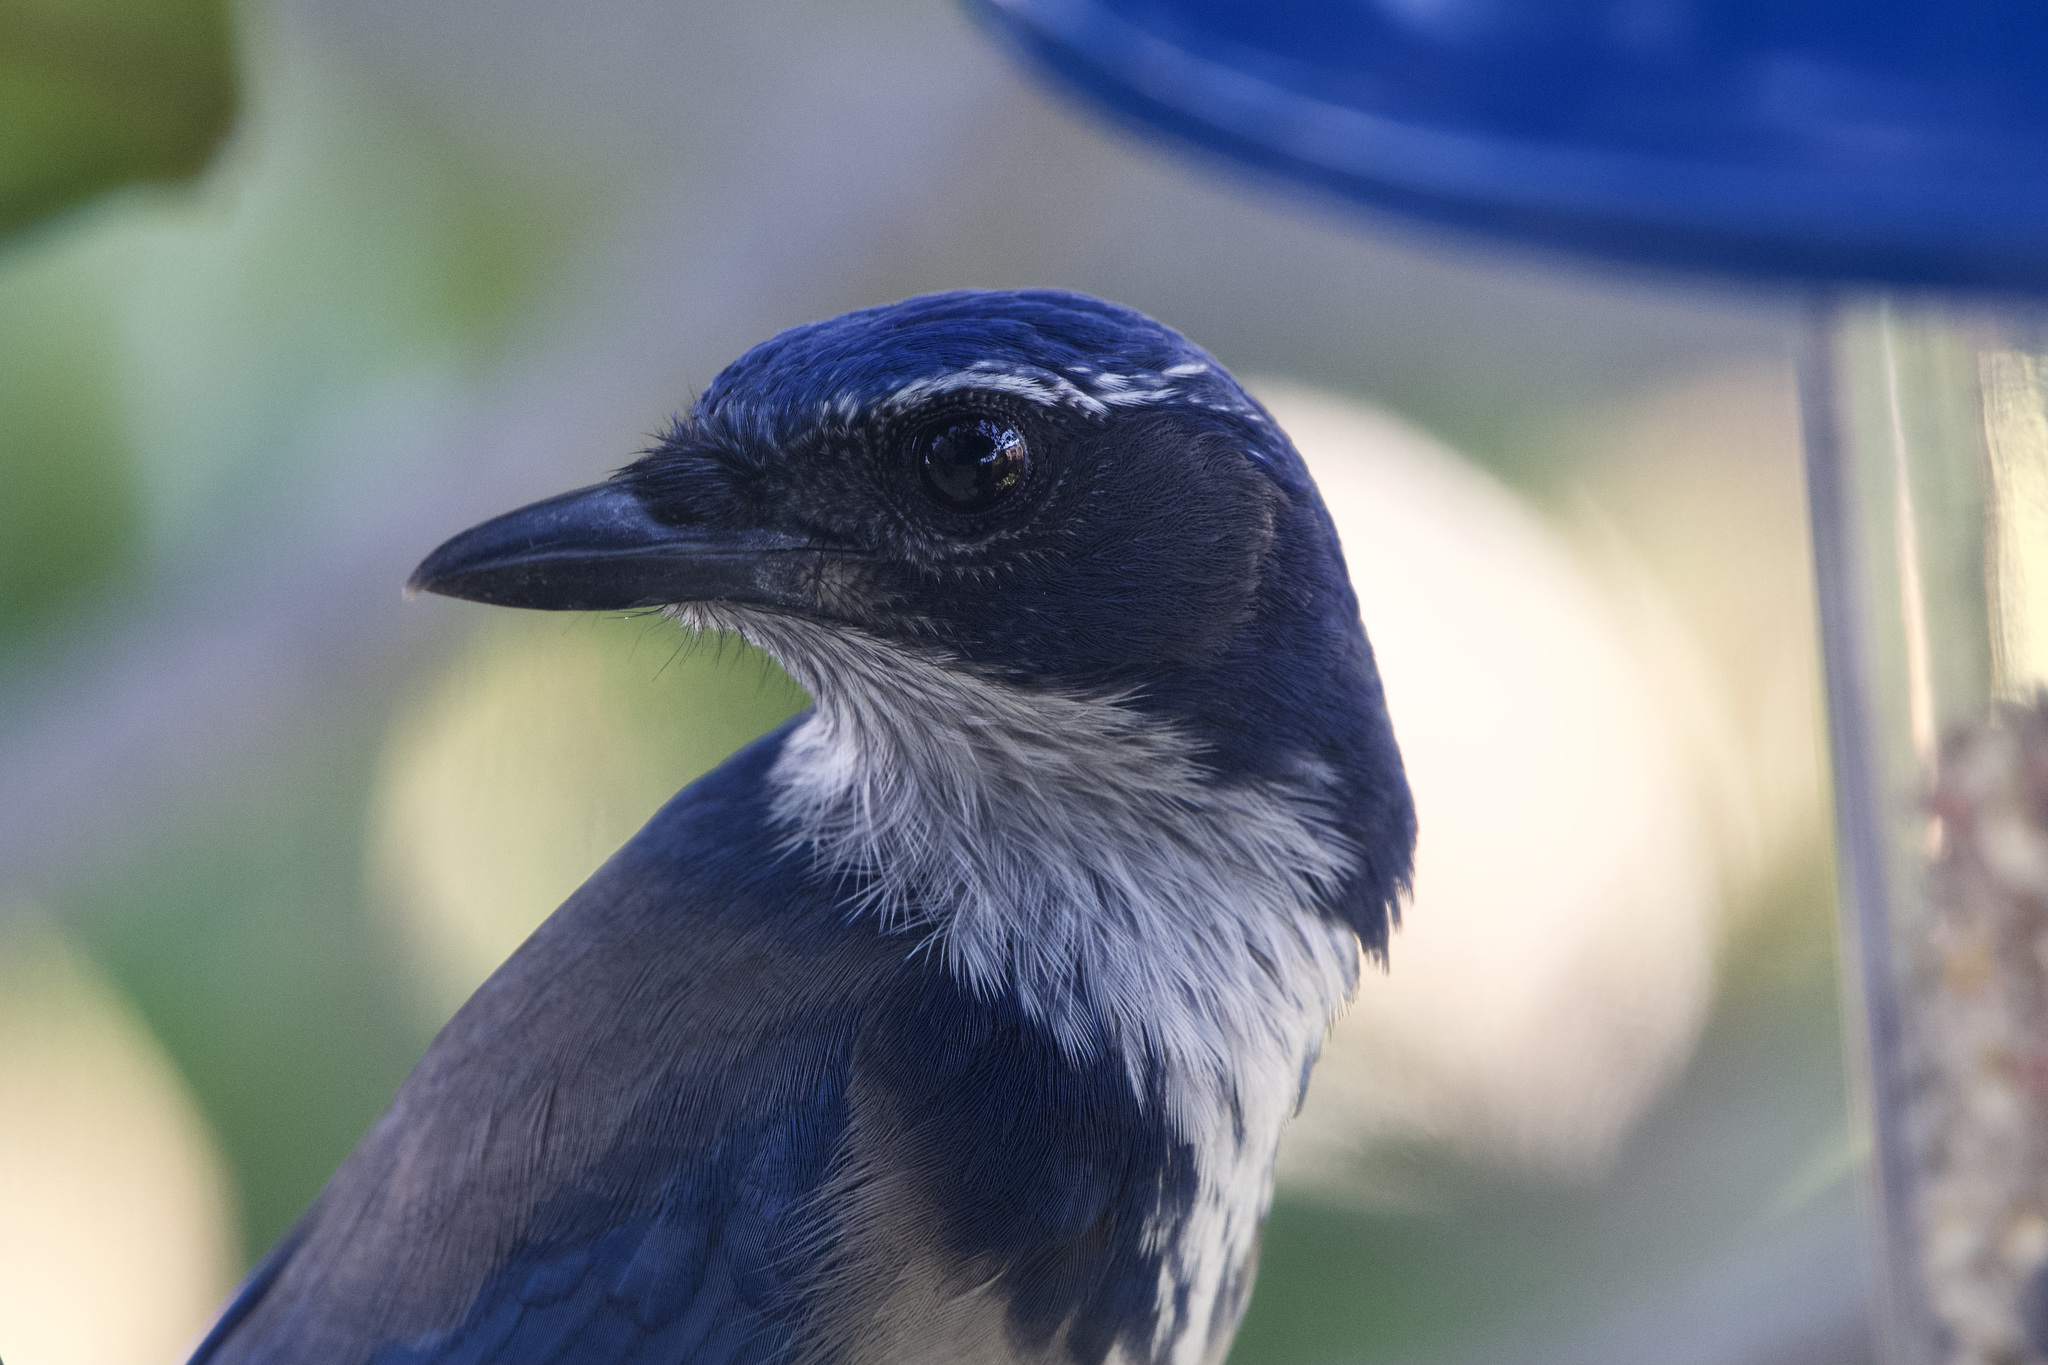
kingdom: Animalia
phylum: Chordata
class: Aves
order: Passeriformes
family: Corvidae
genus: Aphelocoma
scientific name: Aphelocoma californica
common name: California scrub-jay
